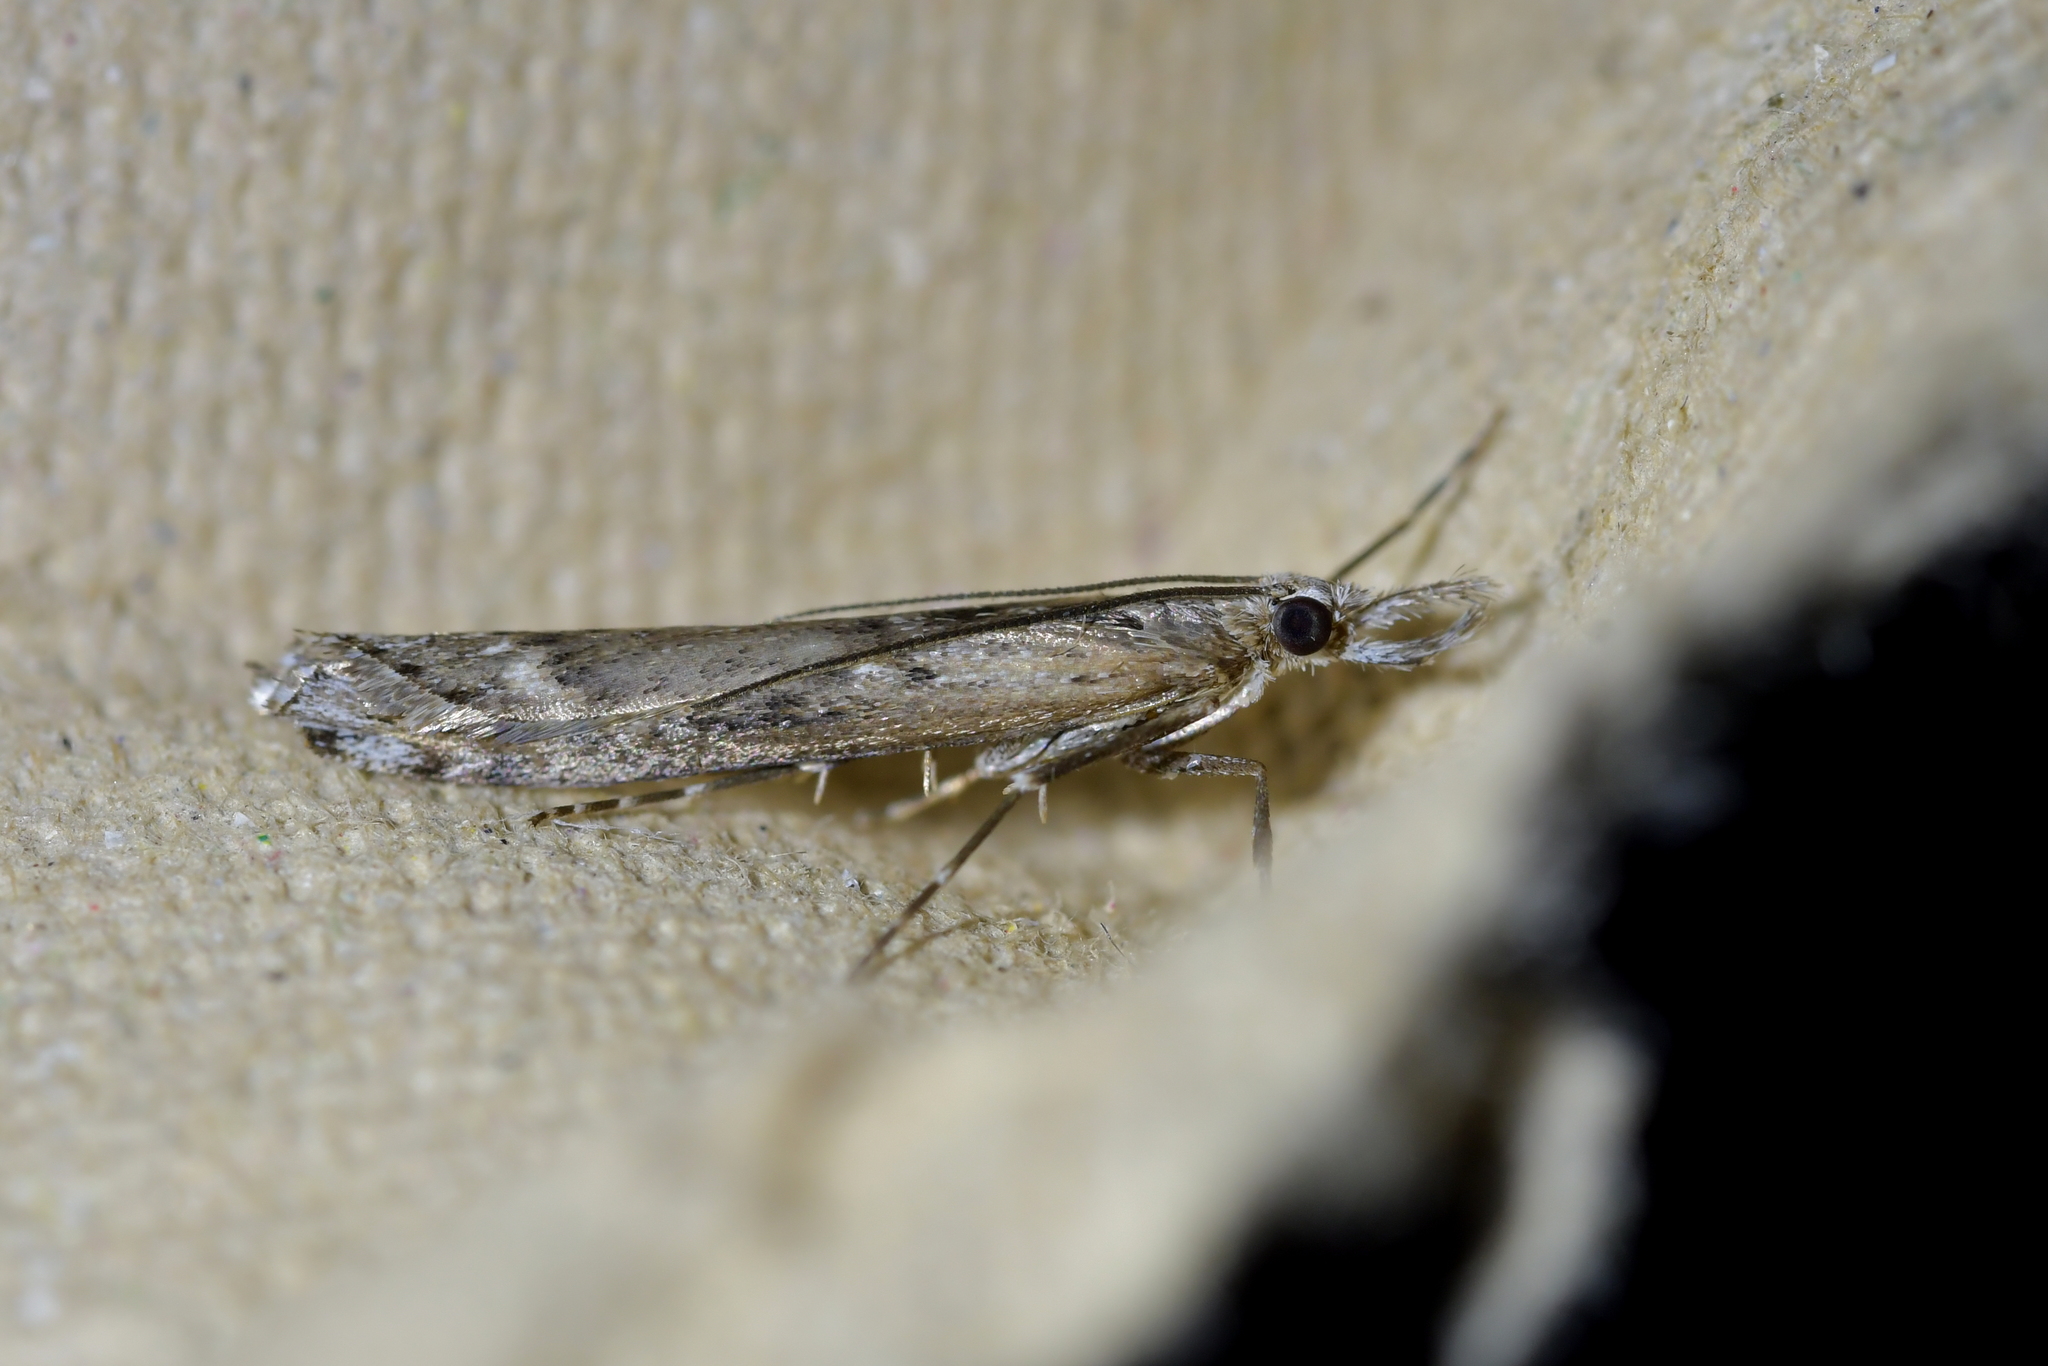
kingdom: Animalia
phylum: Arthropoda
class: Insecta
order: Lepidoptera
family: Crambidae
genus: Orocrambus
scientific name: Orocrambus cyclopicus
